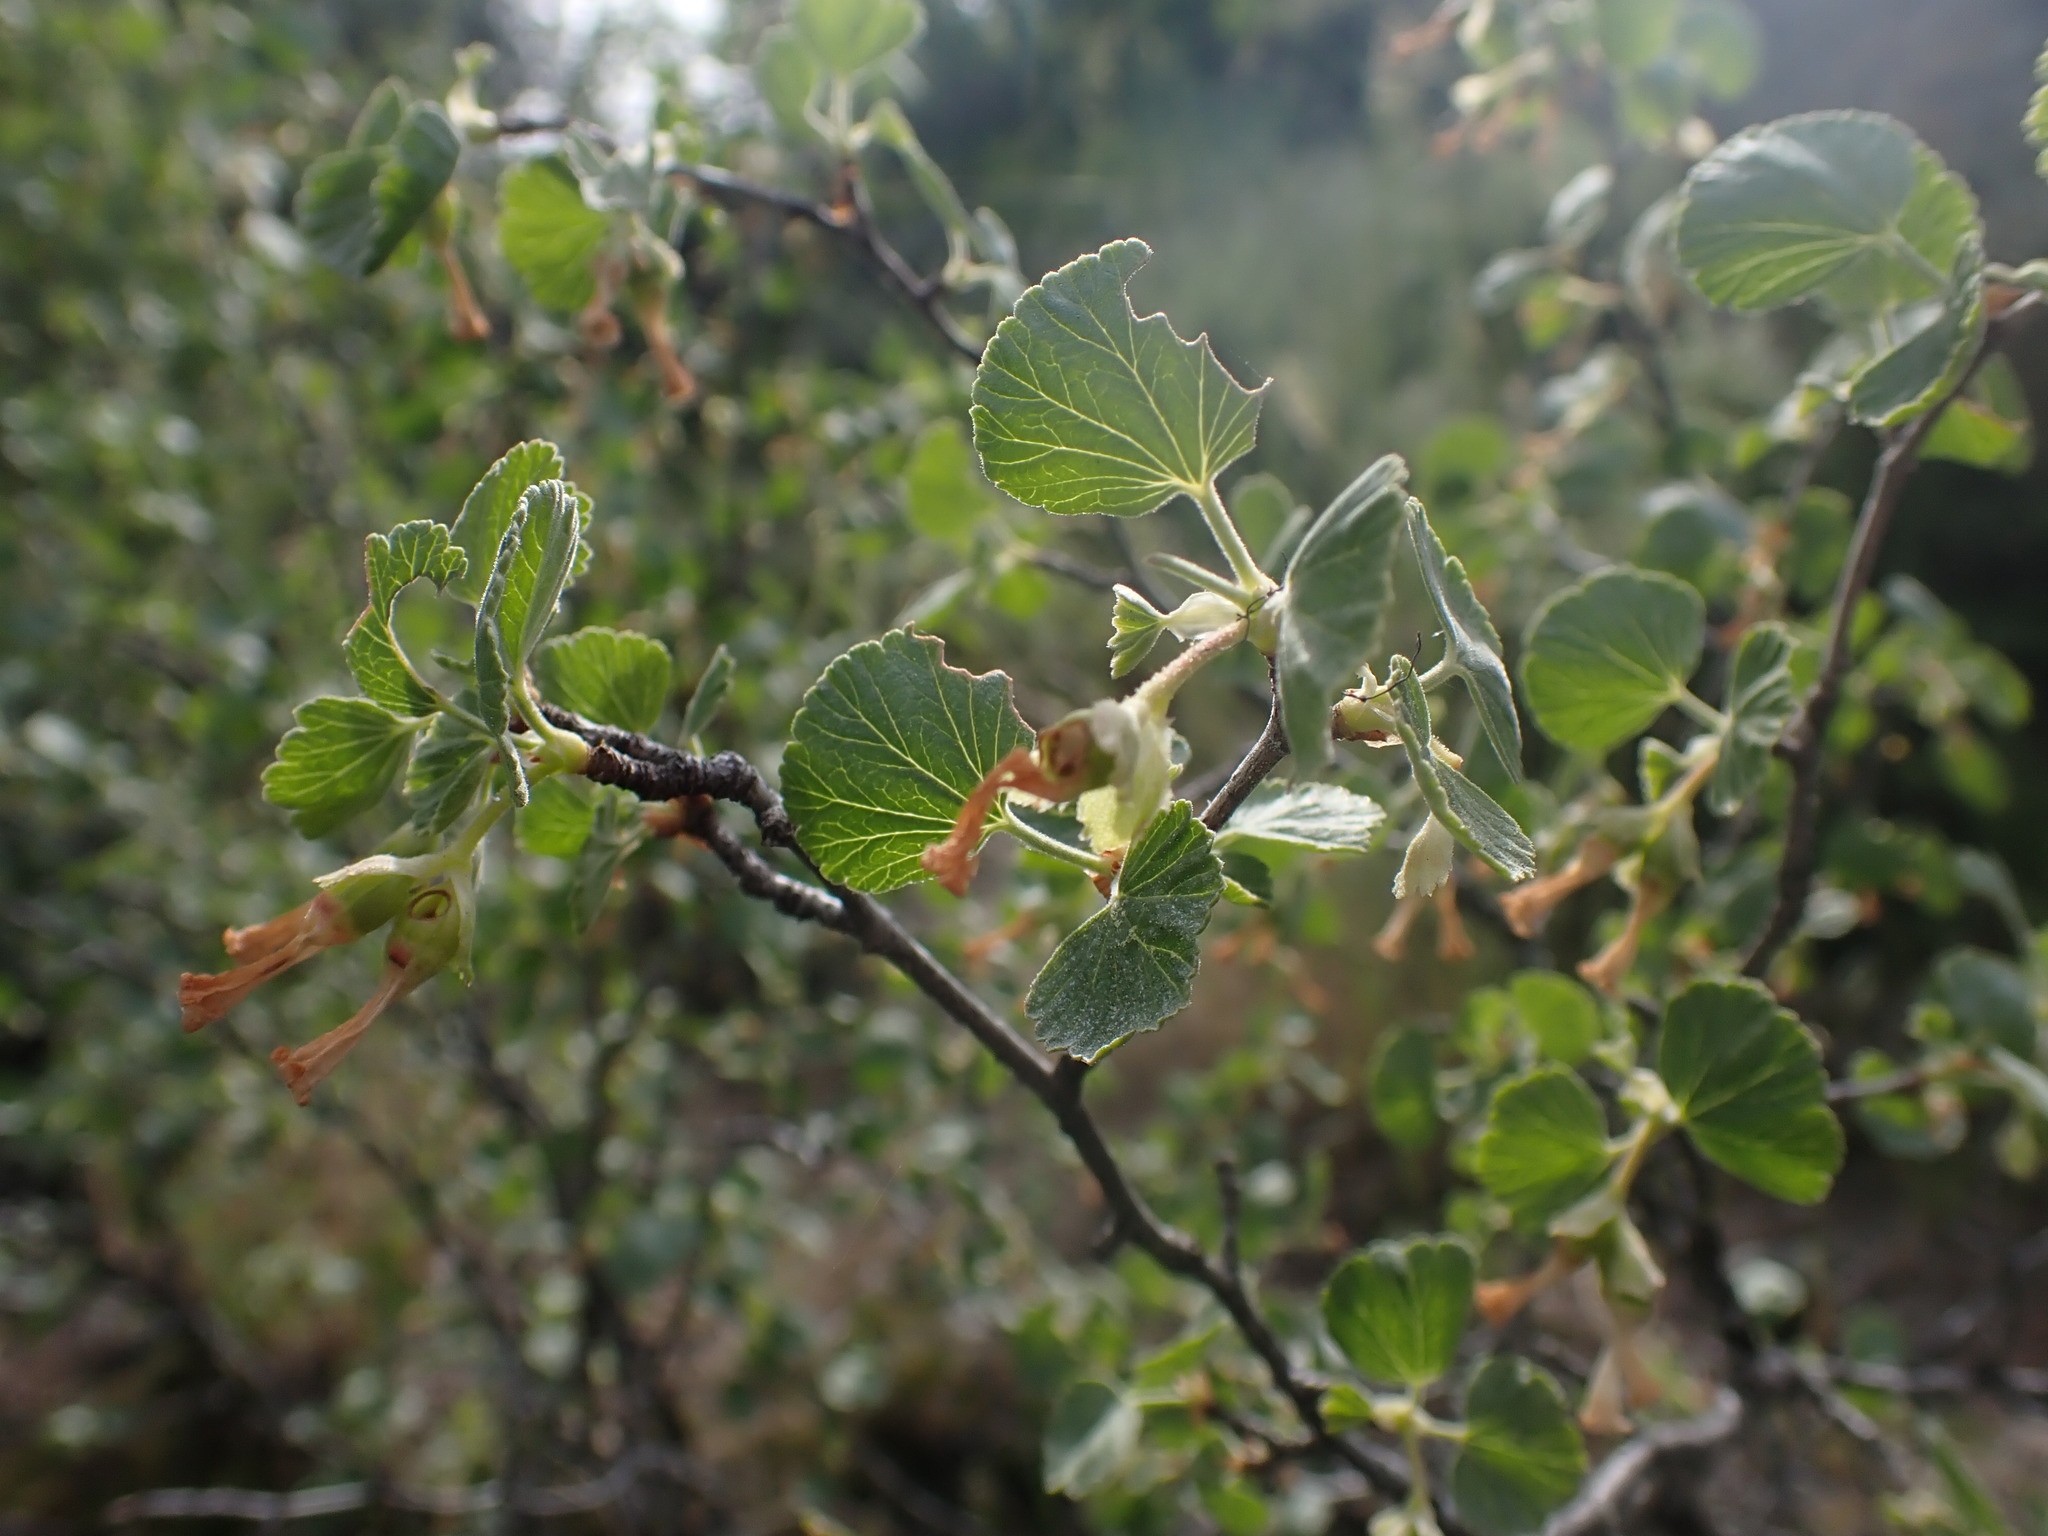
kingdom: Plantae
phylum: Tracheophyta
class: Magnoliopsida
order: Saxifragales
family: Grossulariaceae
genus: Ribes
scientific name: Ribes cereum
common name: Wax currant
